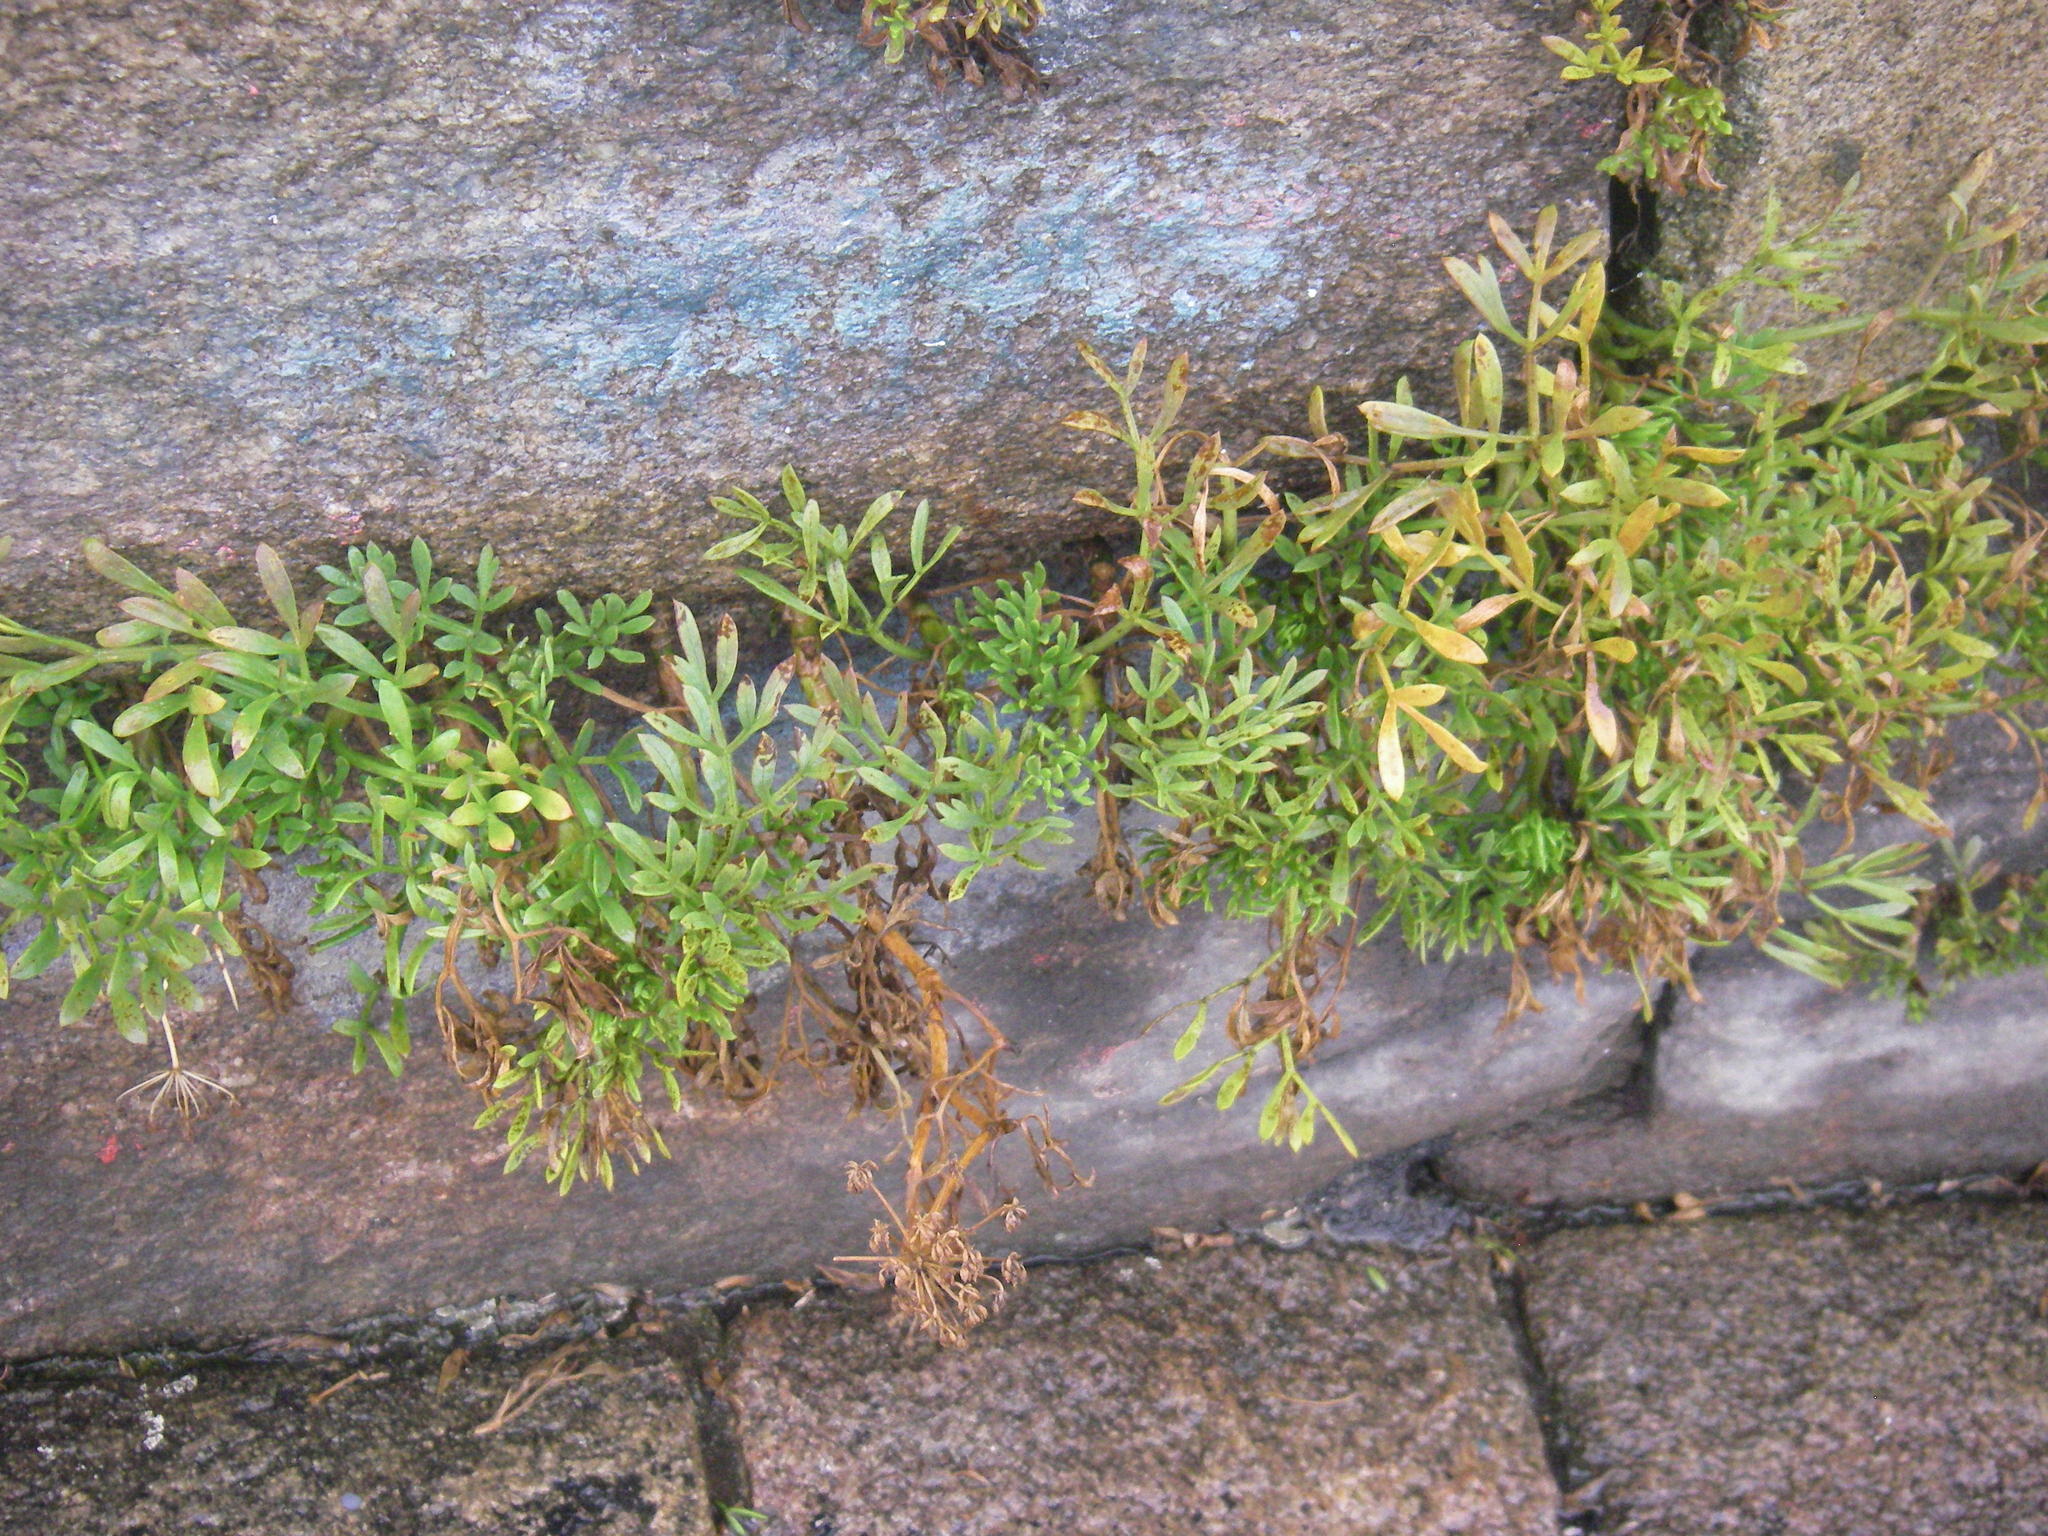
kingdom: Plantae
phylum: Tracheophyta
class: Magnoliopsida
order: Apiales
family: Apiaceae
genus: Crithmum
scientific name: Crithmum maritimum
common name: Rock samphire
